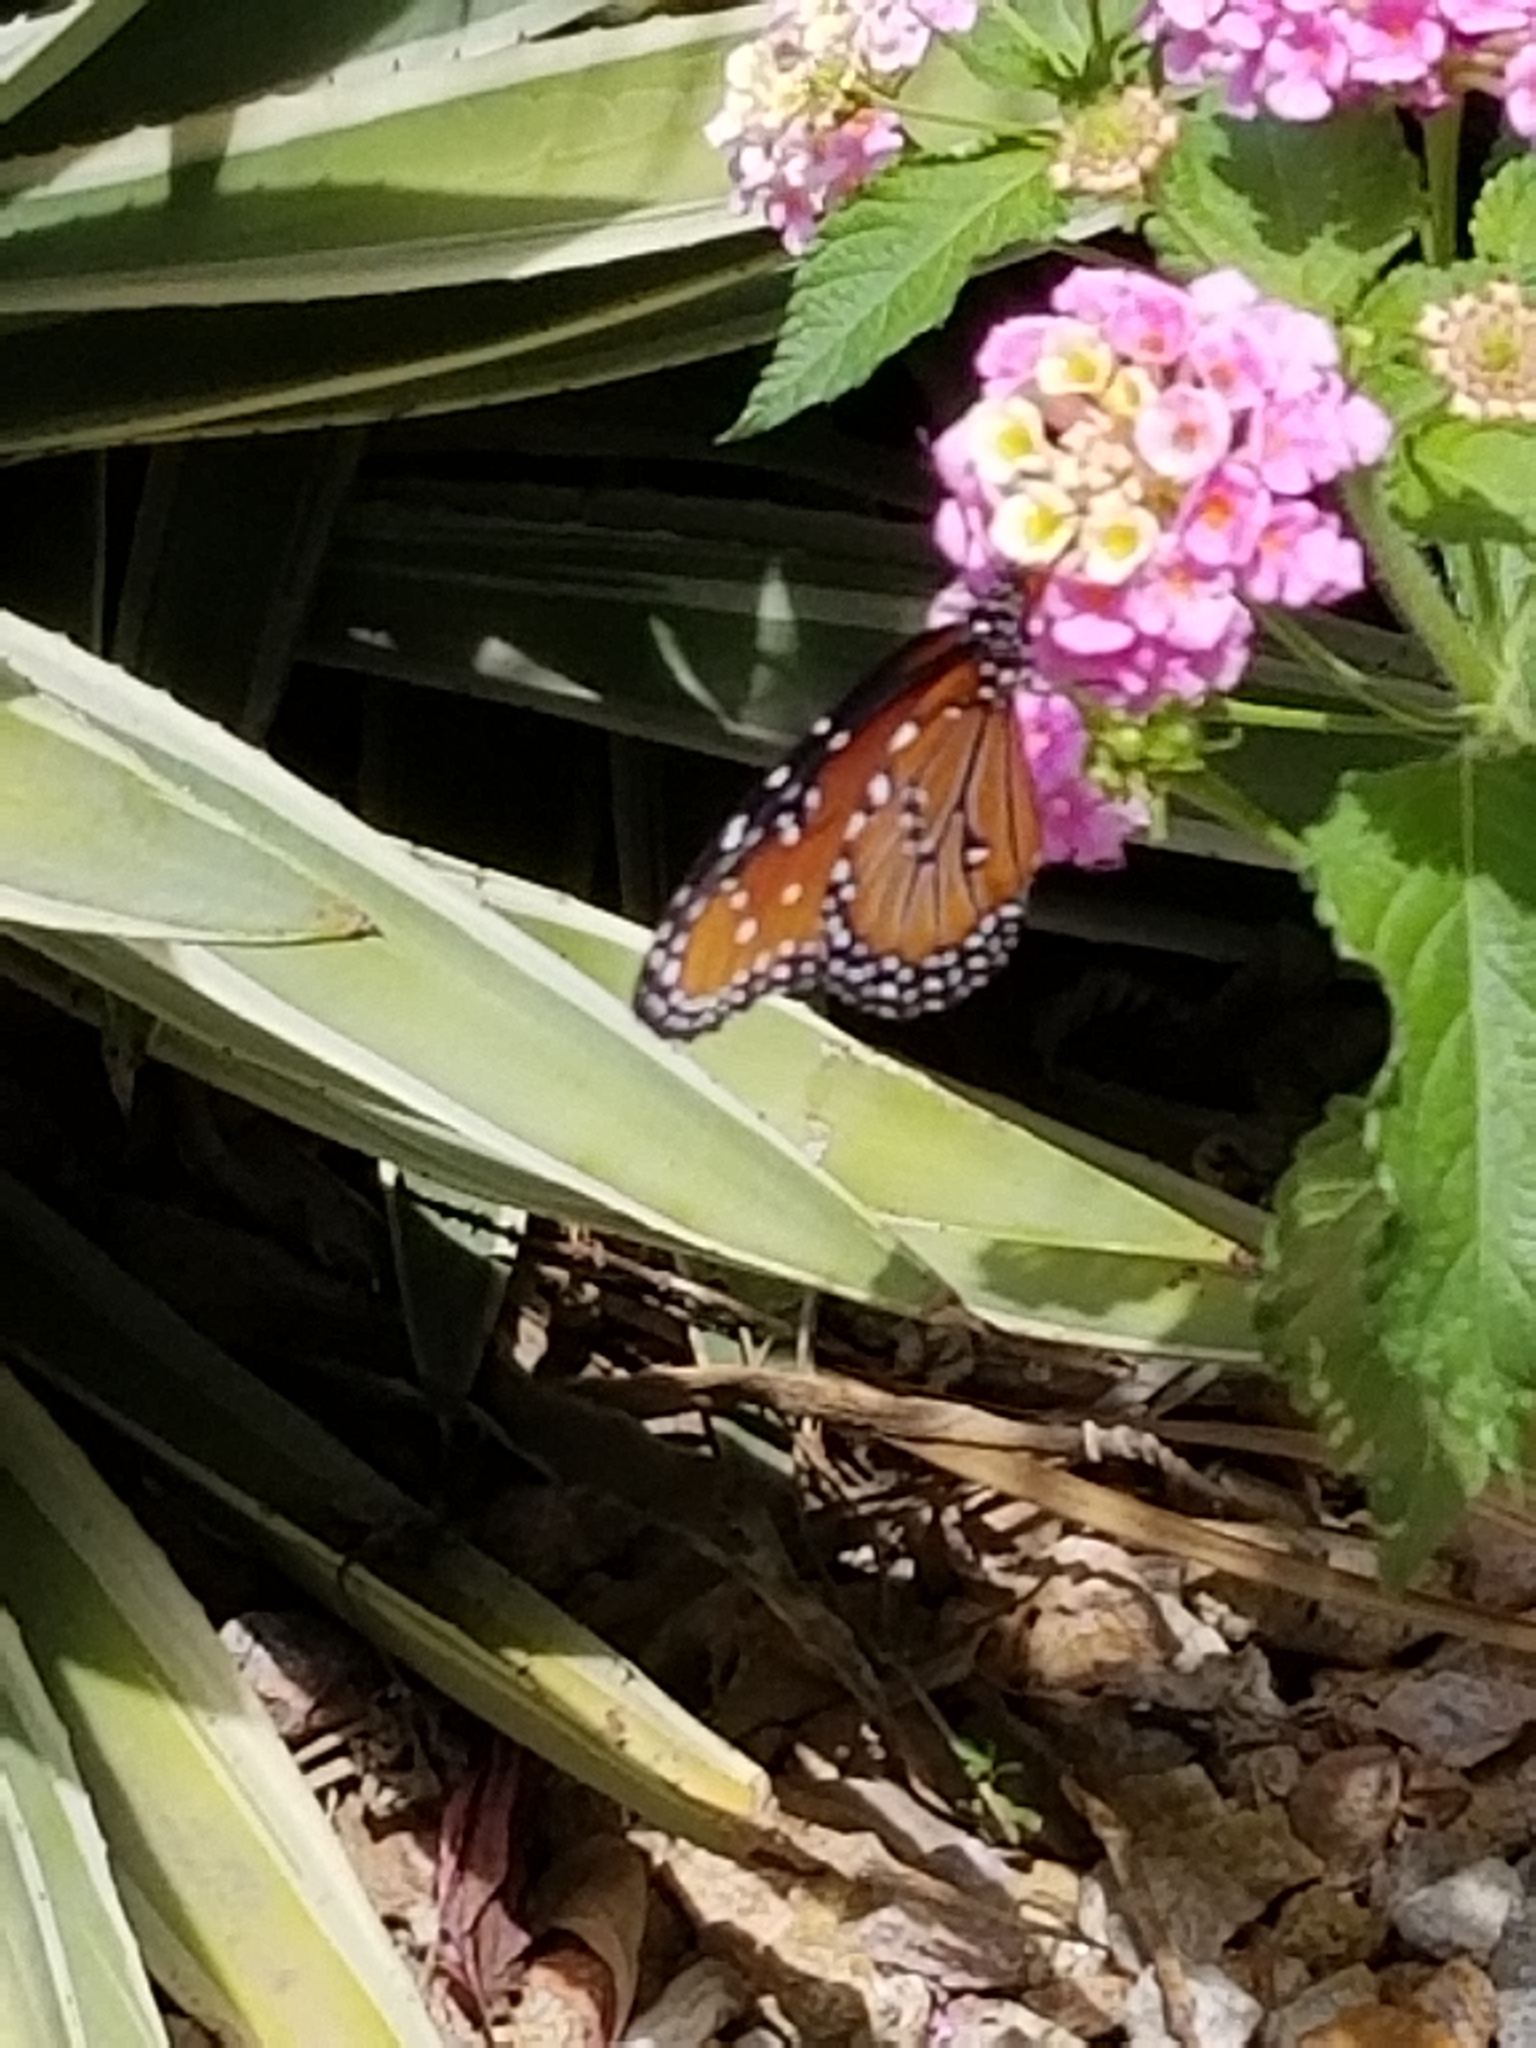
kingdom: Animalia
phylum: Arthropoda
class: Insecta
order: Lepidoptera
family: Nymphalidae
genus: Danaus
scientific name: Danaus gilippus
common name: Queen
